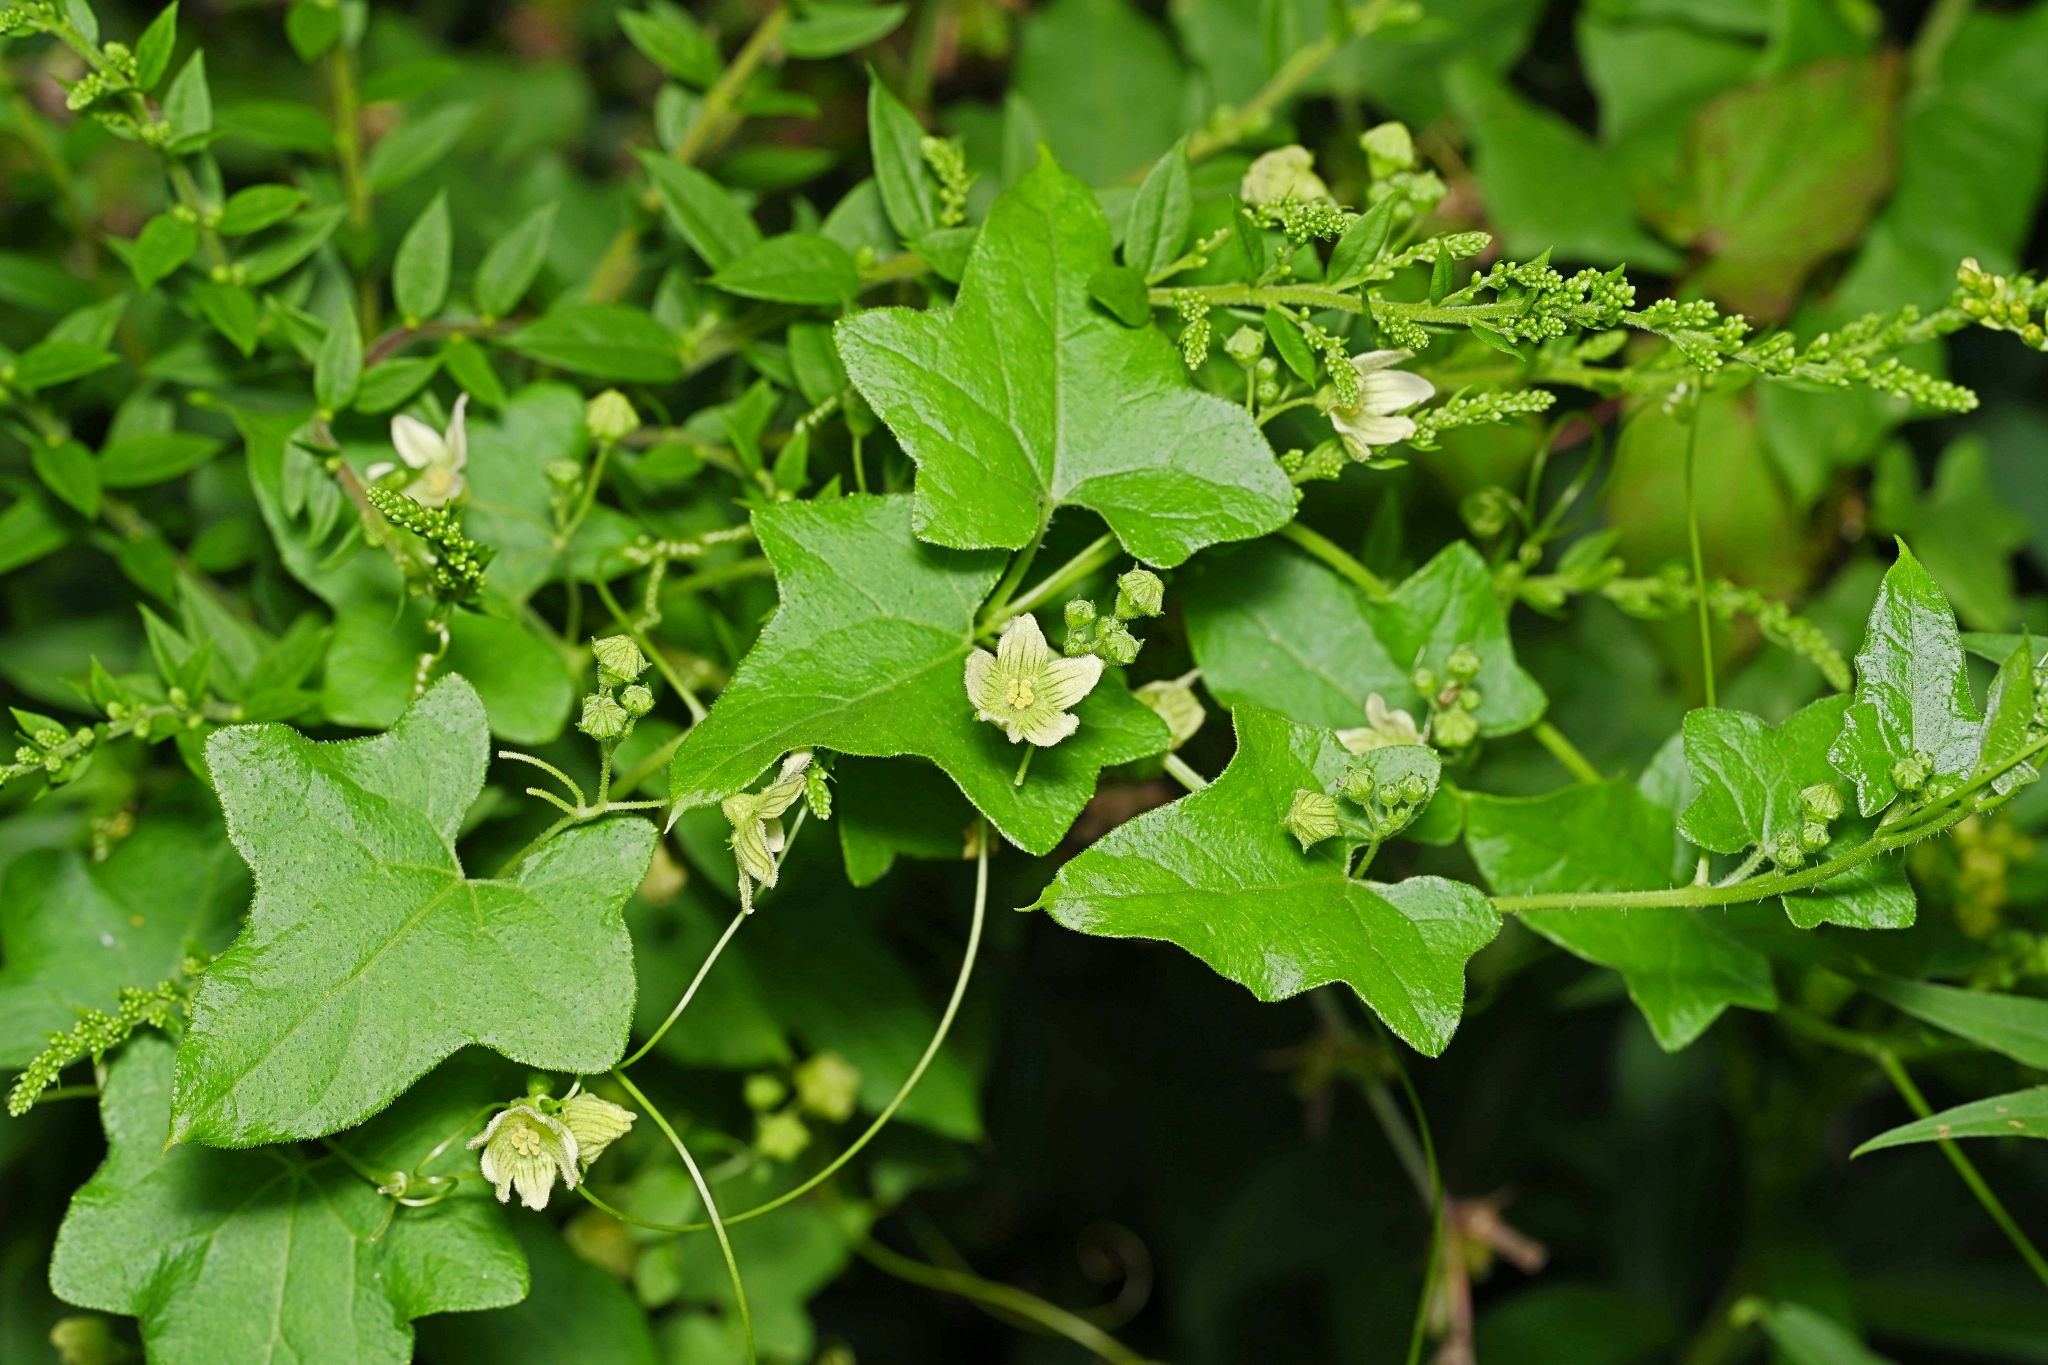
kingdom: Plantae
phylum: Tracheophyta
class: Magnoliopsida
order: Cucurbitales
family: Cucurbitaceae
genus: Bryonia
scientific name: Bryonia dioica
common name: White bryony
